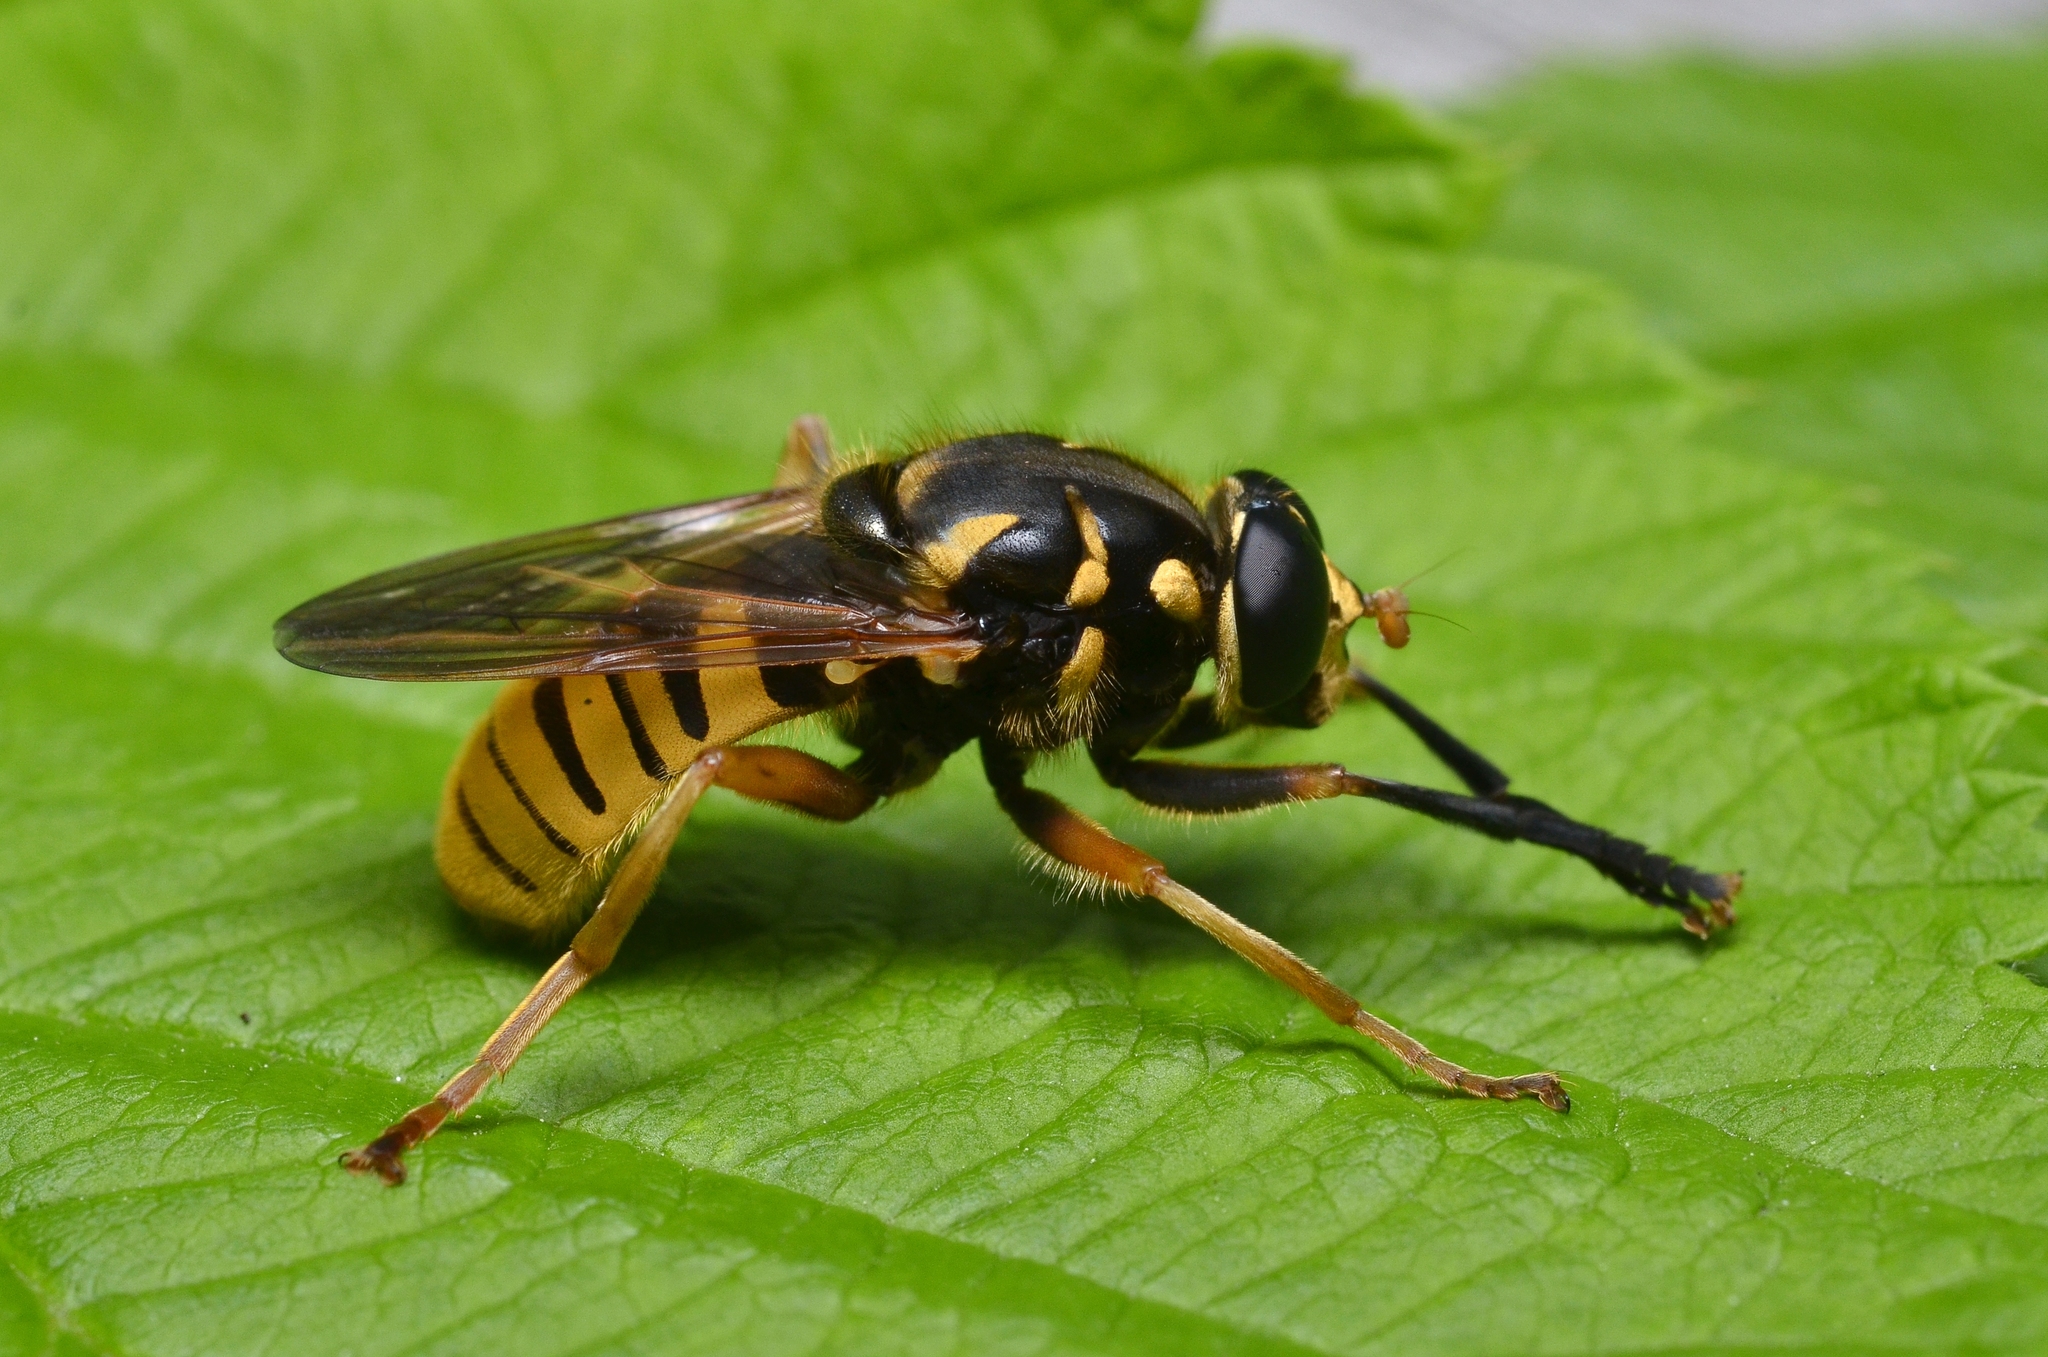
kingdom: Animalia
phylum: Arthropoda
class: Insecta
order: Diptera
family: Syrphidae
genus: Temnostoma
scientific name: Temnostoma vespiforme
